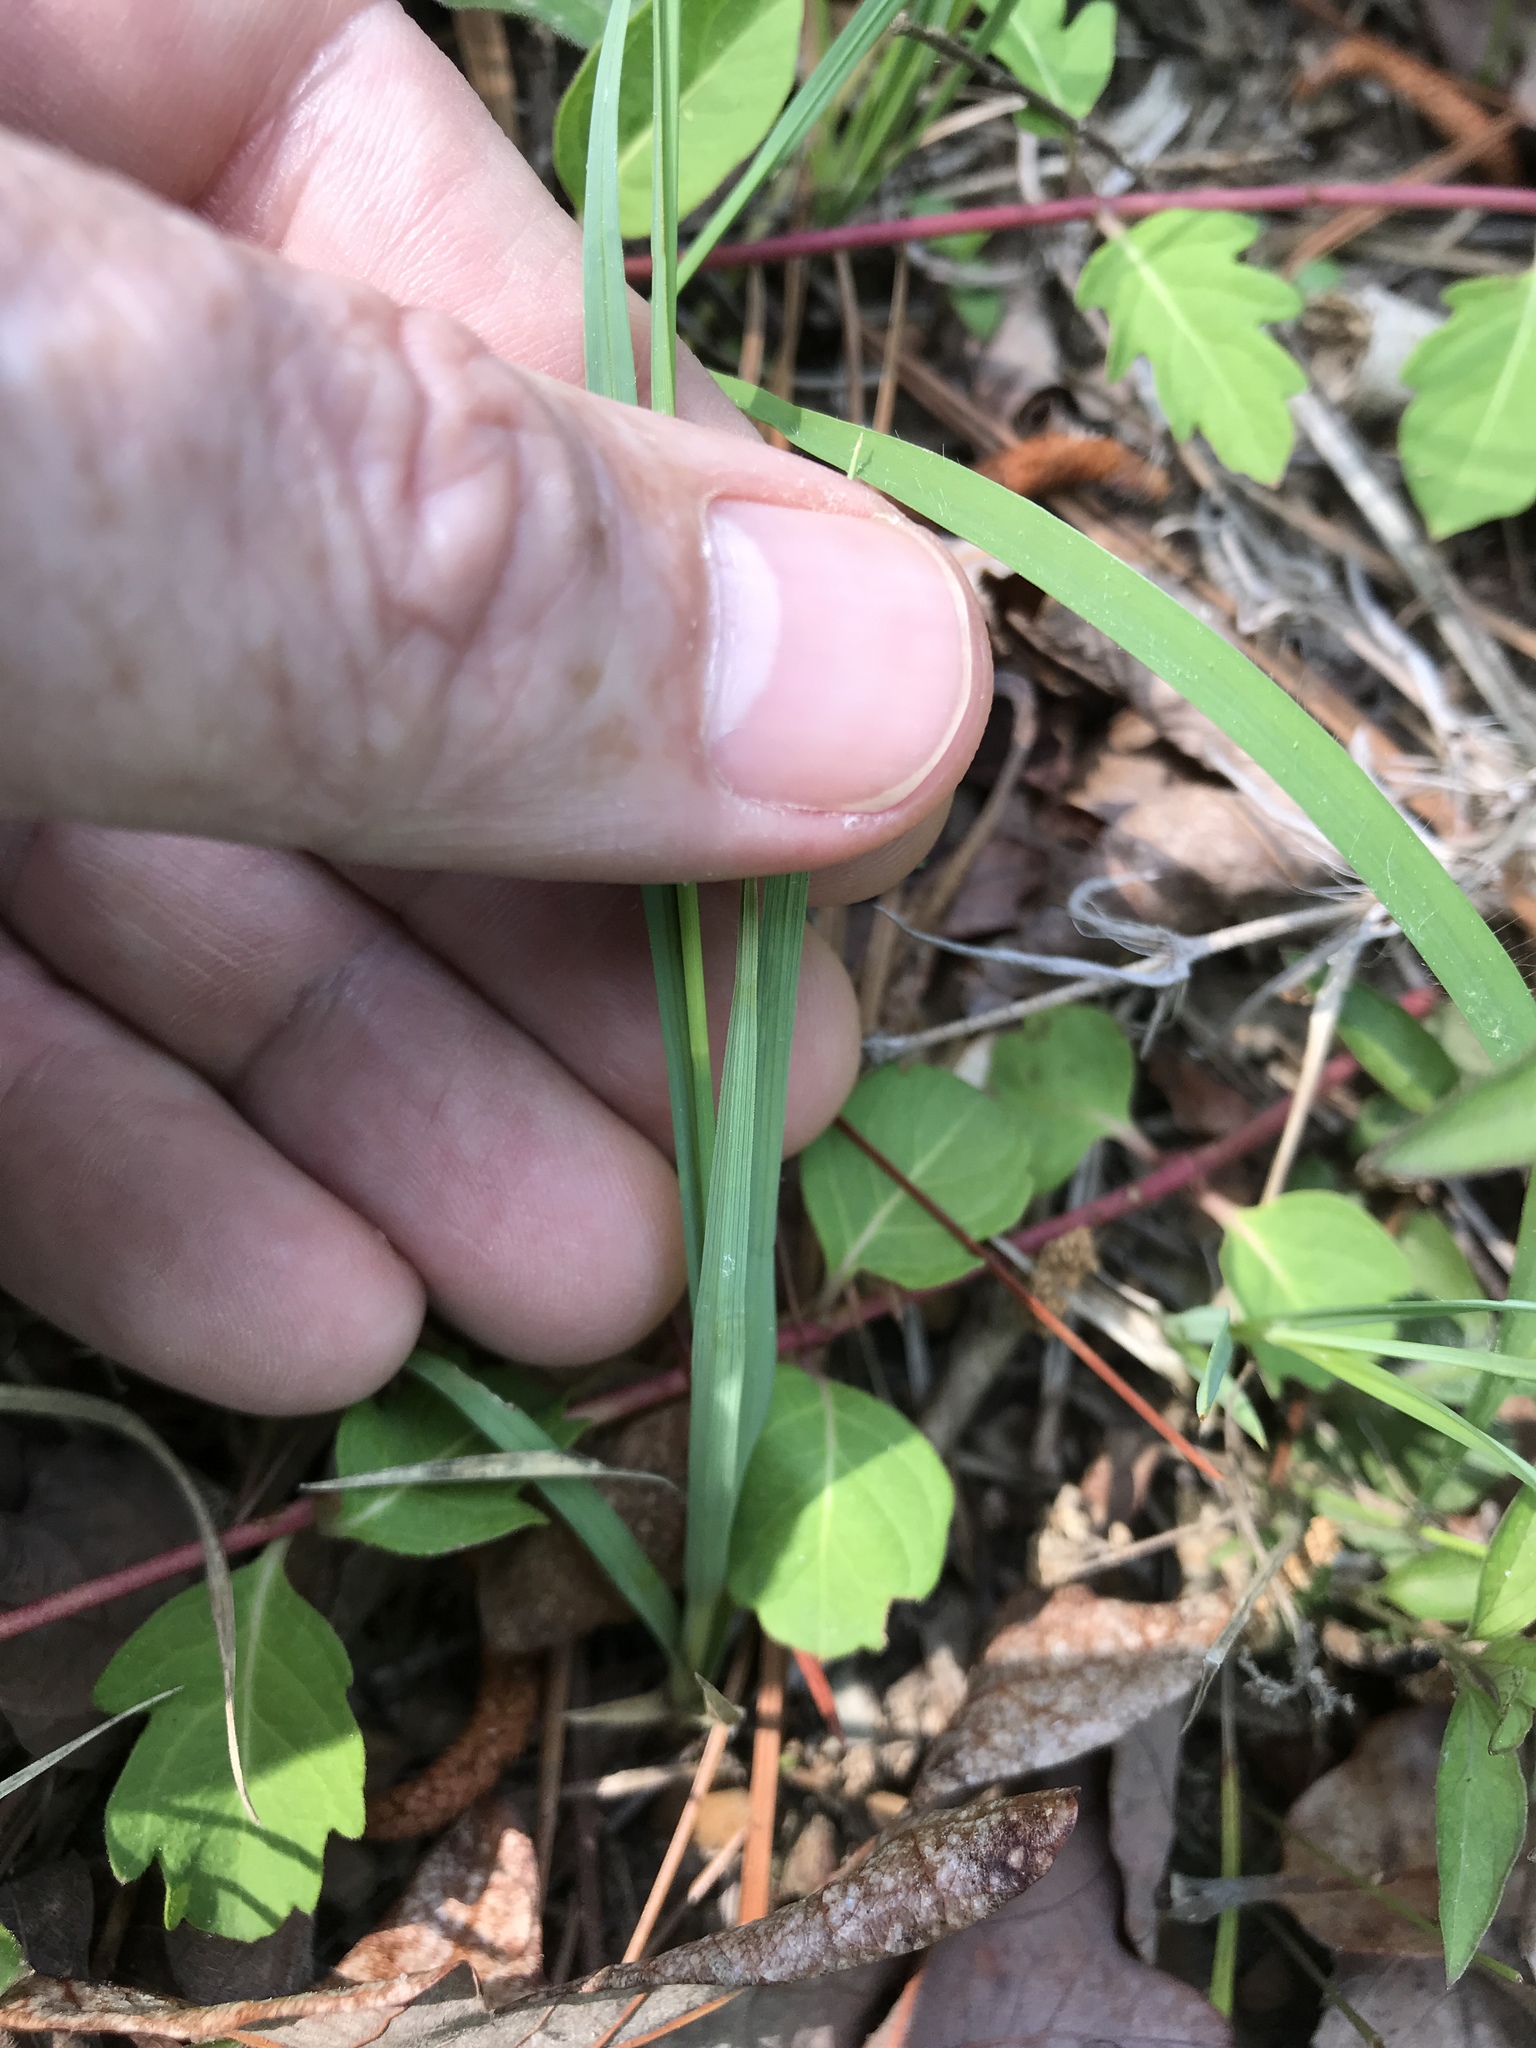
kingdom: Plantae
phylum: Tracheophyta
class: Liliopsida
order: Poales
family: Cyperaceae
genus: Carex
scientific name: Carex meadii
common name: Mead's sedge
